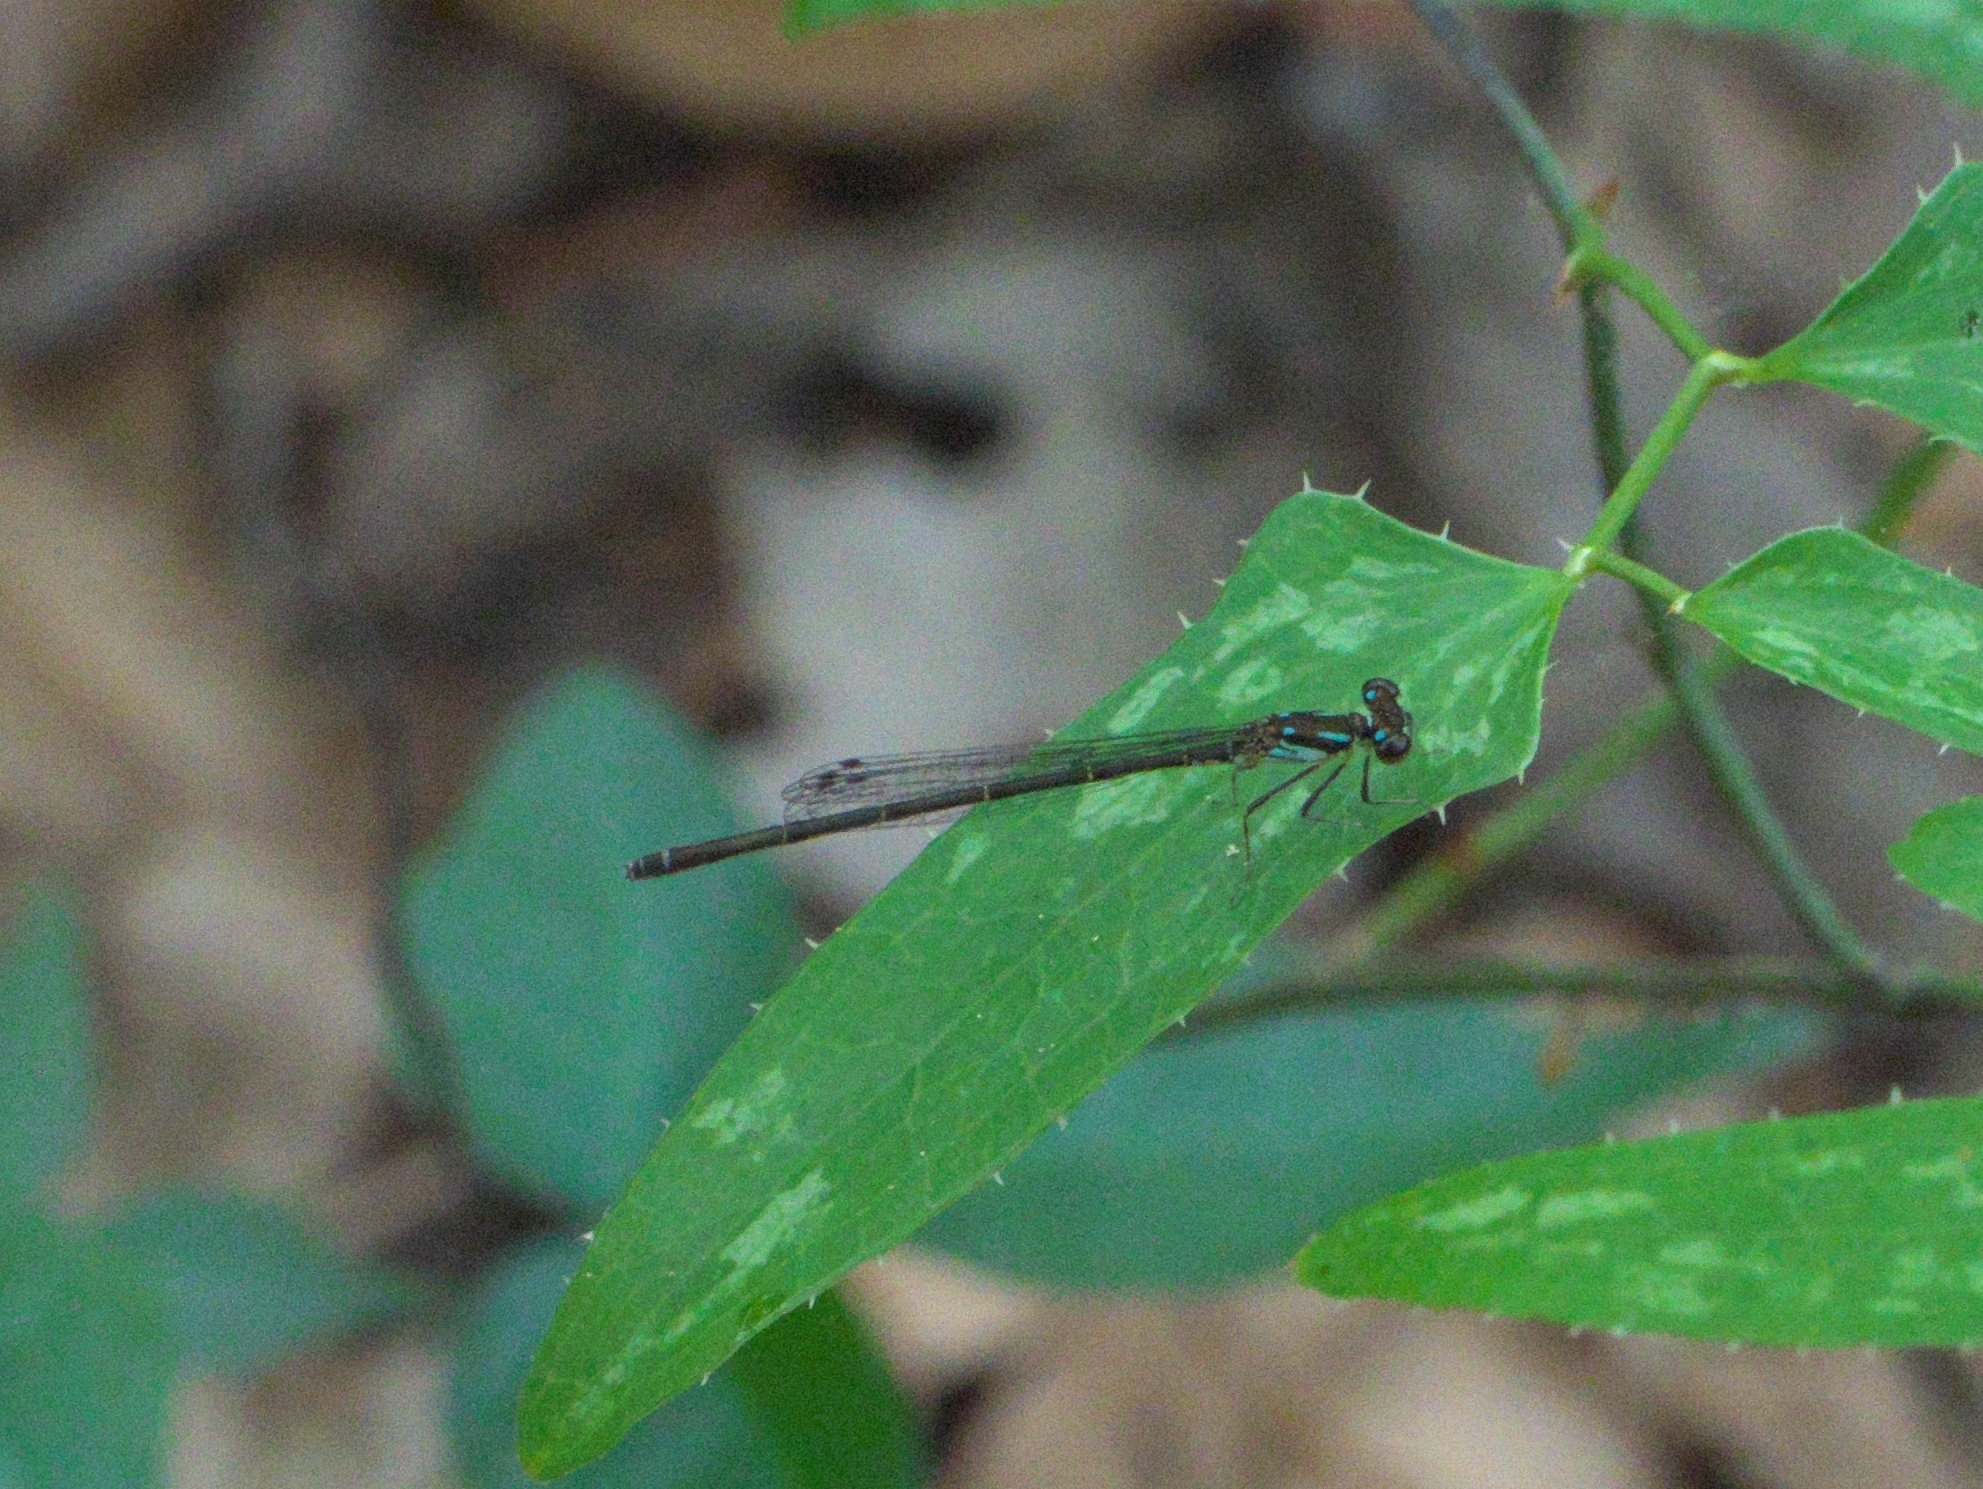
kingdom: Animalia
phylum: Arthropoda
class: Insecta
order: Odonata
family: Coenagrionidae
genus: Ischnura
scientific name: Ischnura posita
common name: Fragile forktail
